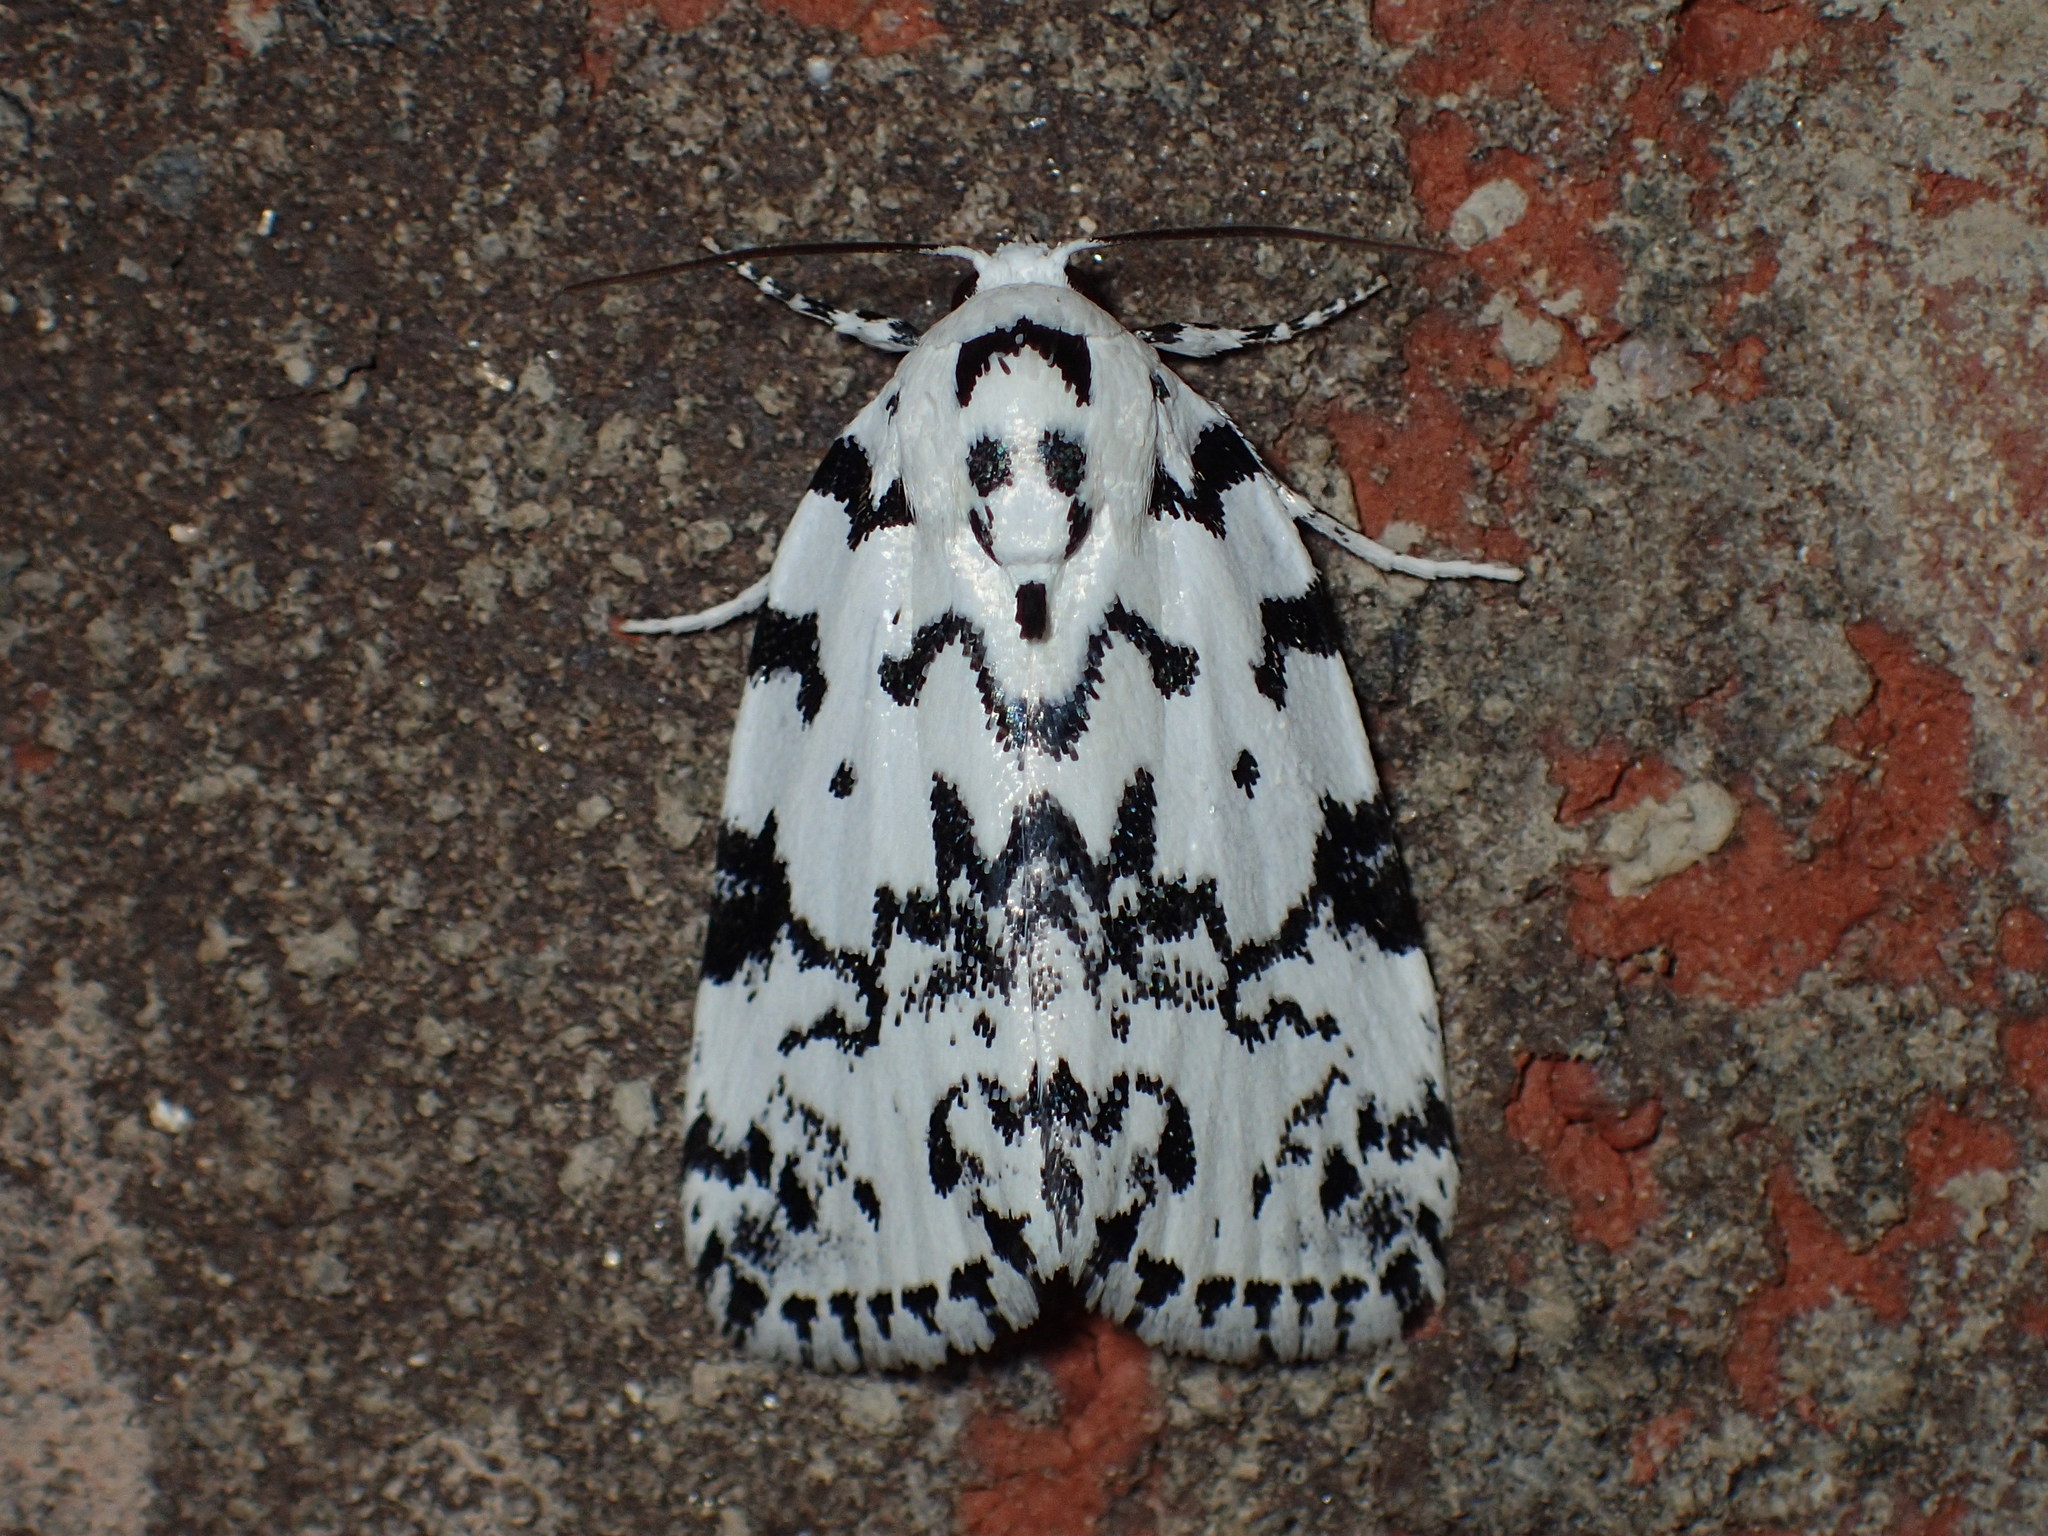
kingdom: Animalia
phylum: Arthropoda
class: Insecta
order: Lepidoptera
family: Noctuidae
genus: Polygrammate
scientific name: Polygrammate hebraeicum
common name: Hebrew moth
